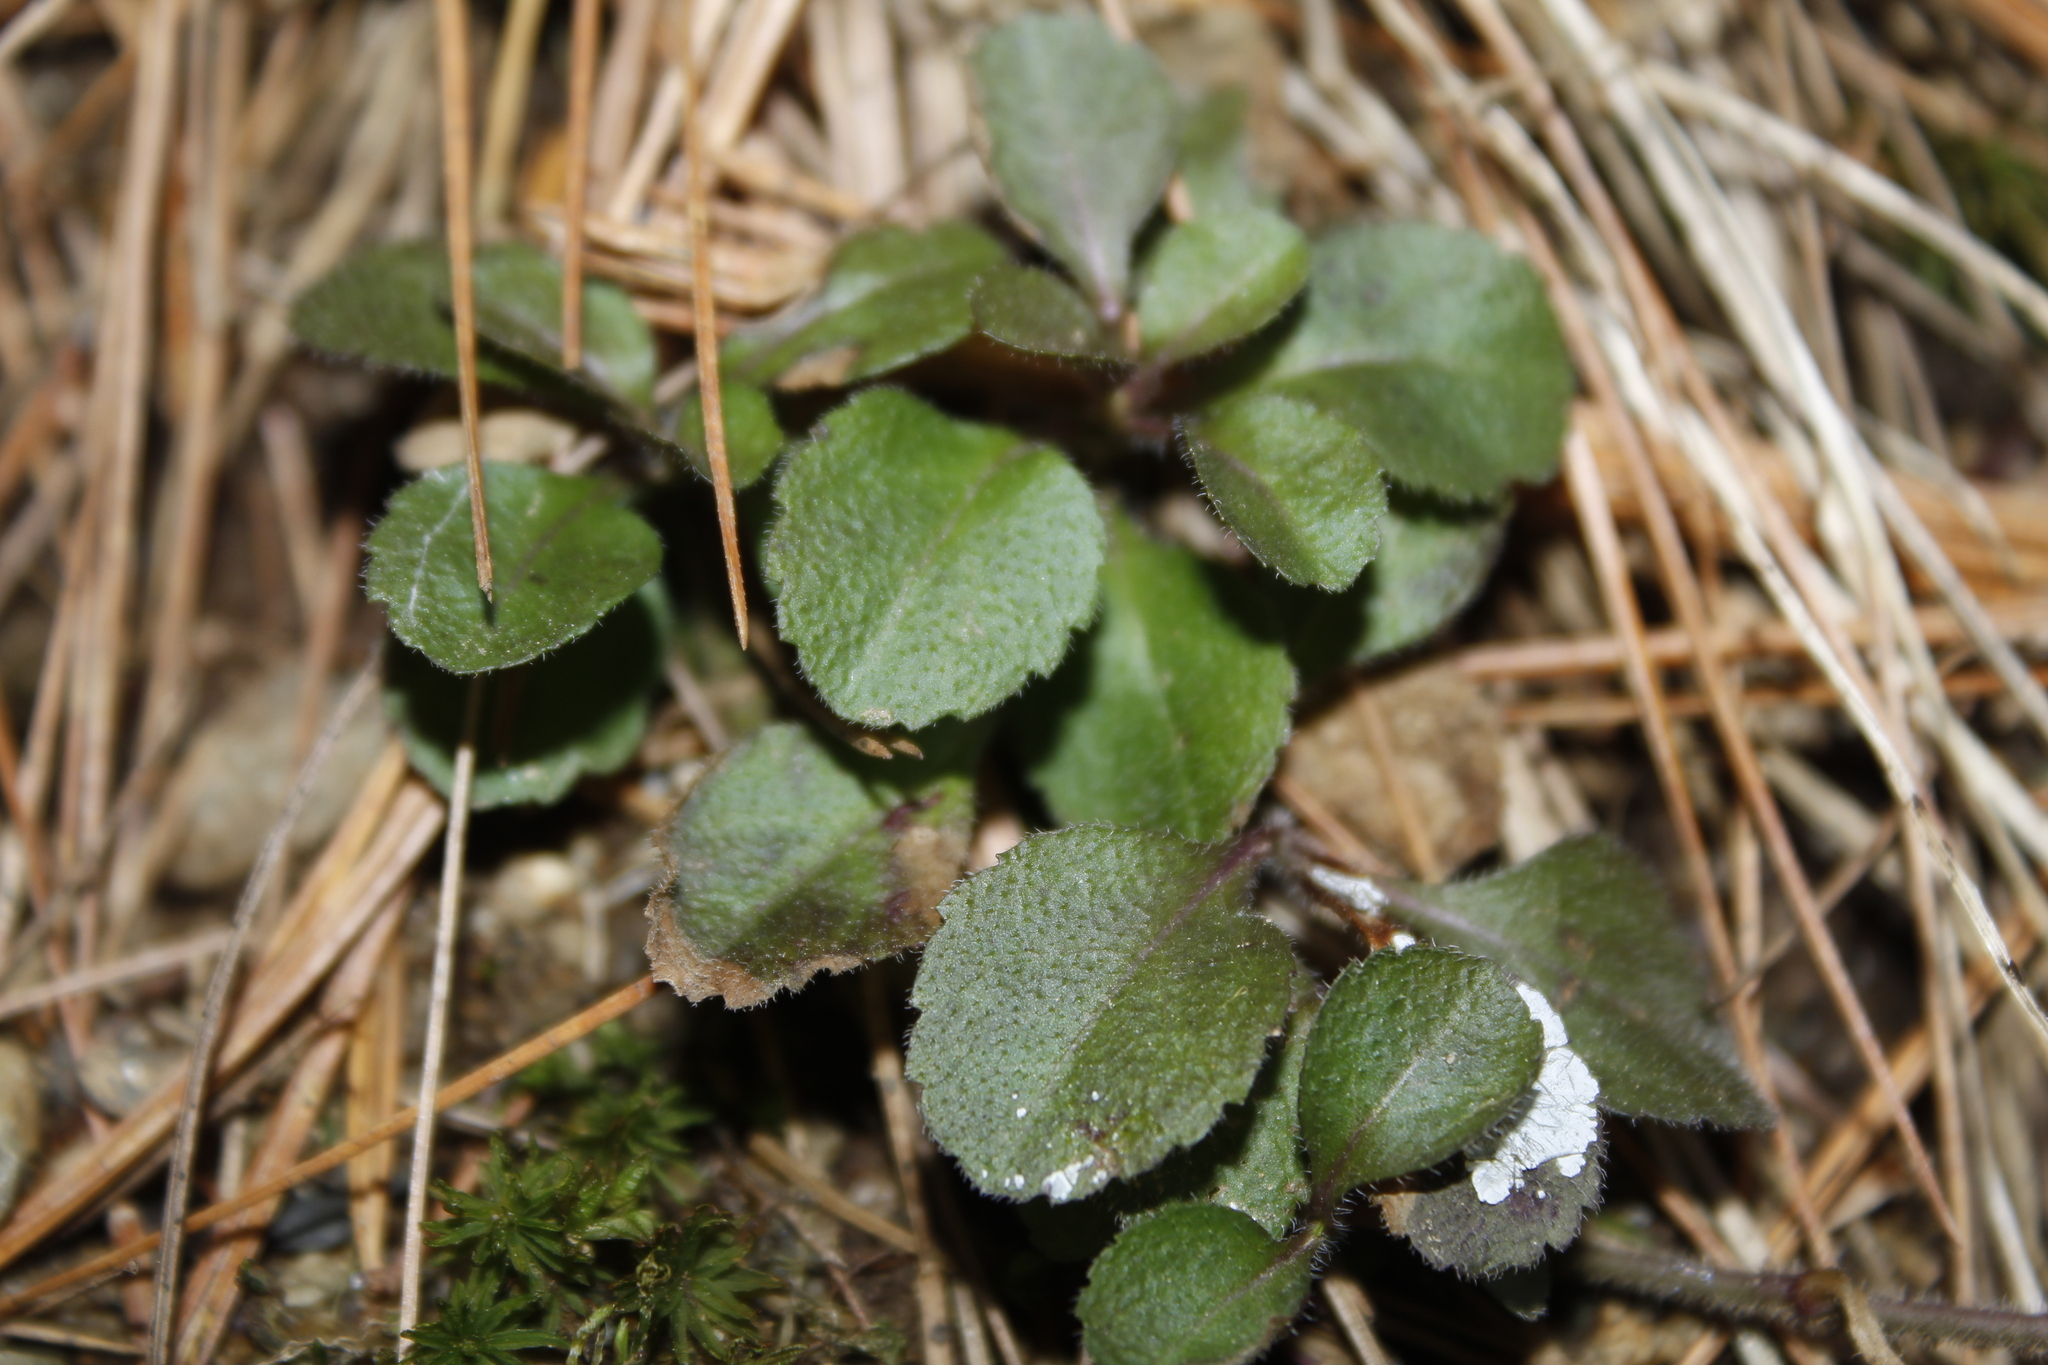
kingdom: Plantae
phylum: Tracheophyta
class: Magnoliopsida
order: Lamiales
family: Plantaginaceae
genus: Veronica
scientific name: Veronica officinalis
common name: Common speedwell
